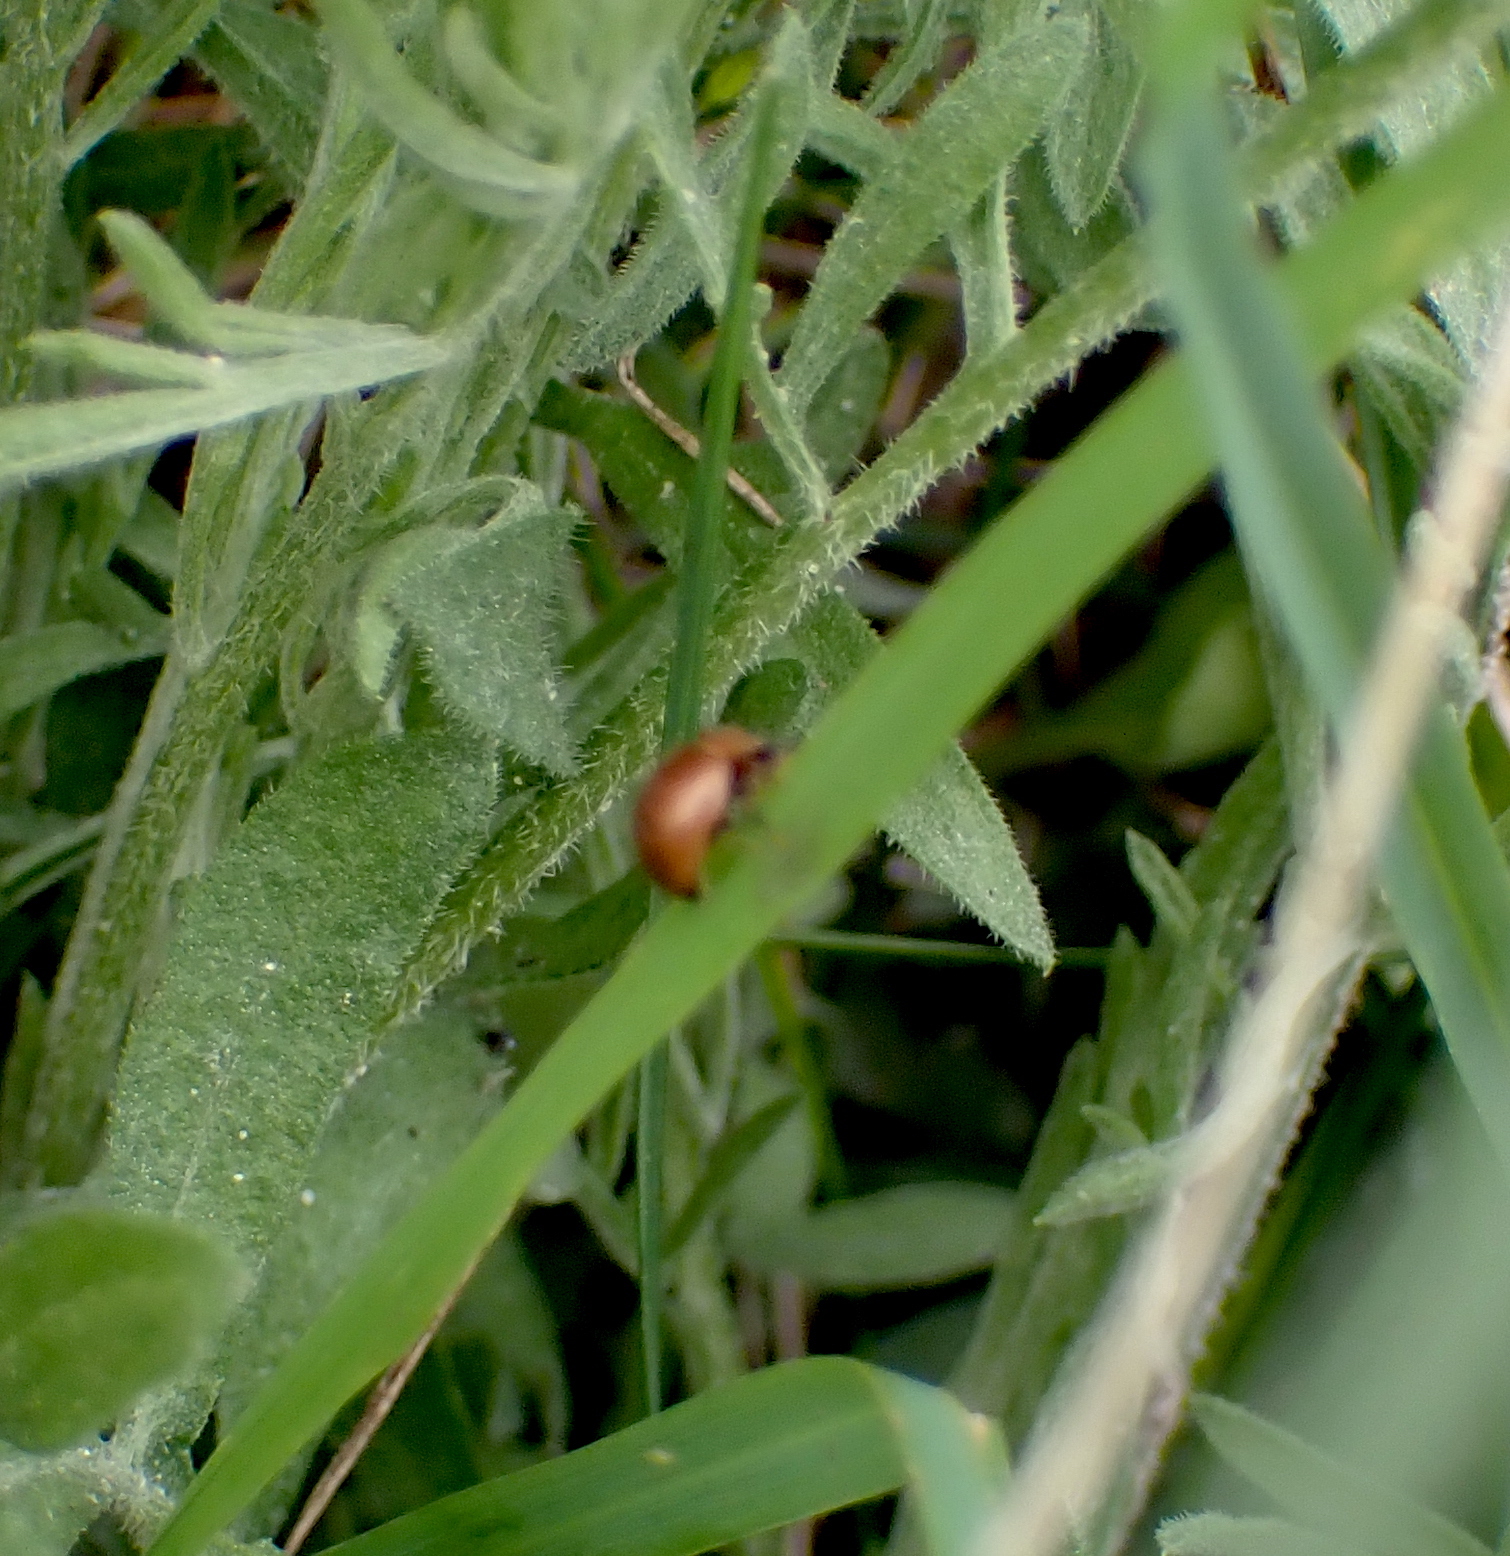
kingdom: Animalia
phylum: Arthropoda
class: Insecta
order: Coleoptera
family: Coccinellidae
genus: Cynegetis
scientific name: Cynegetis impunctata
